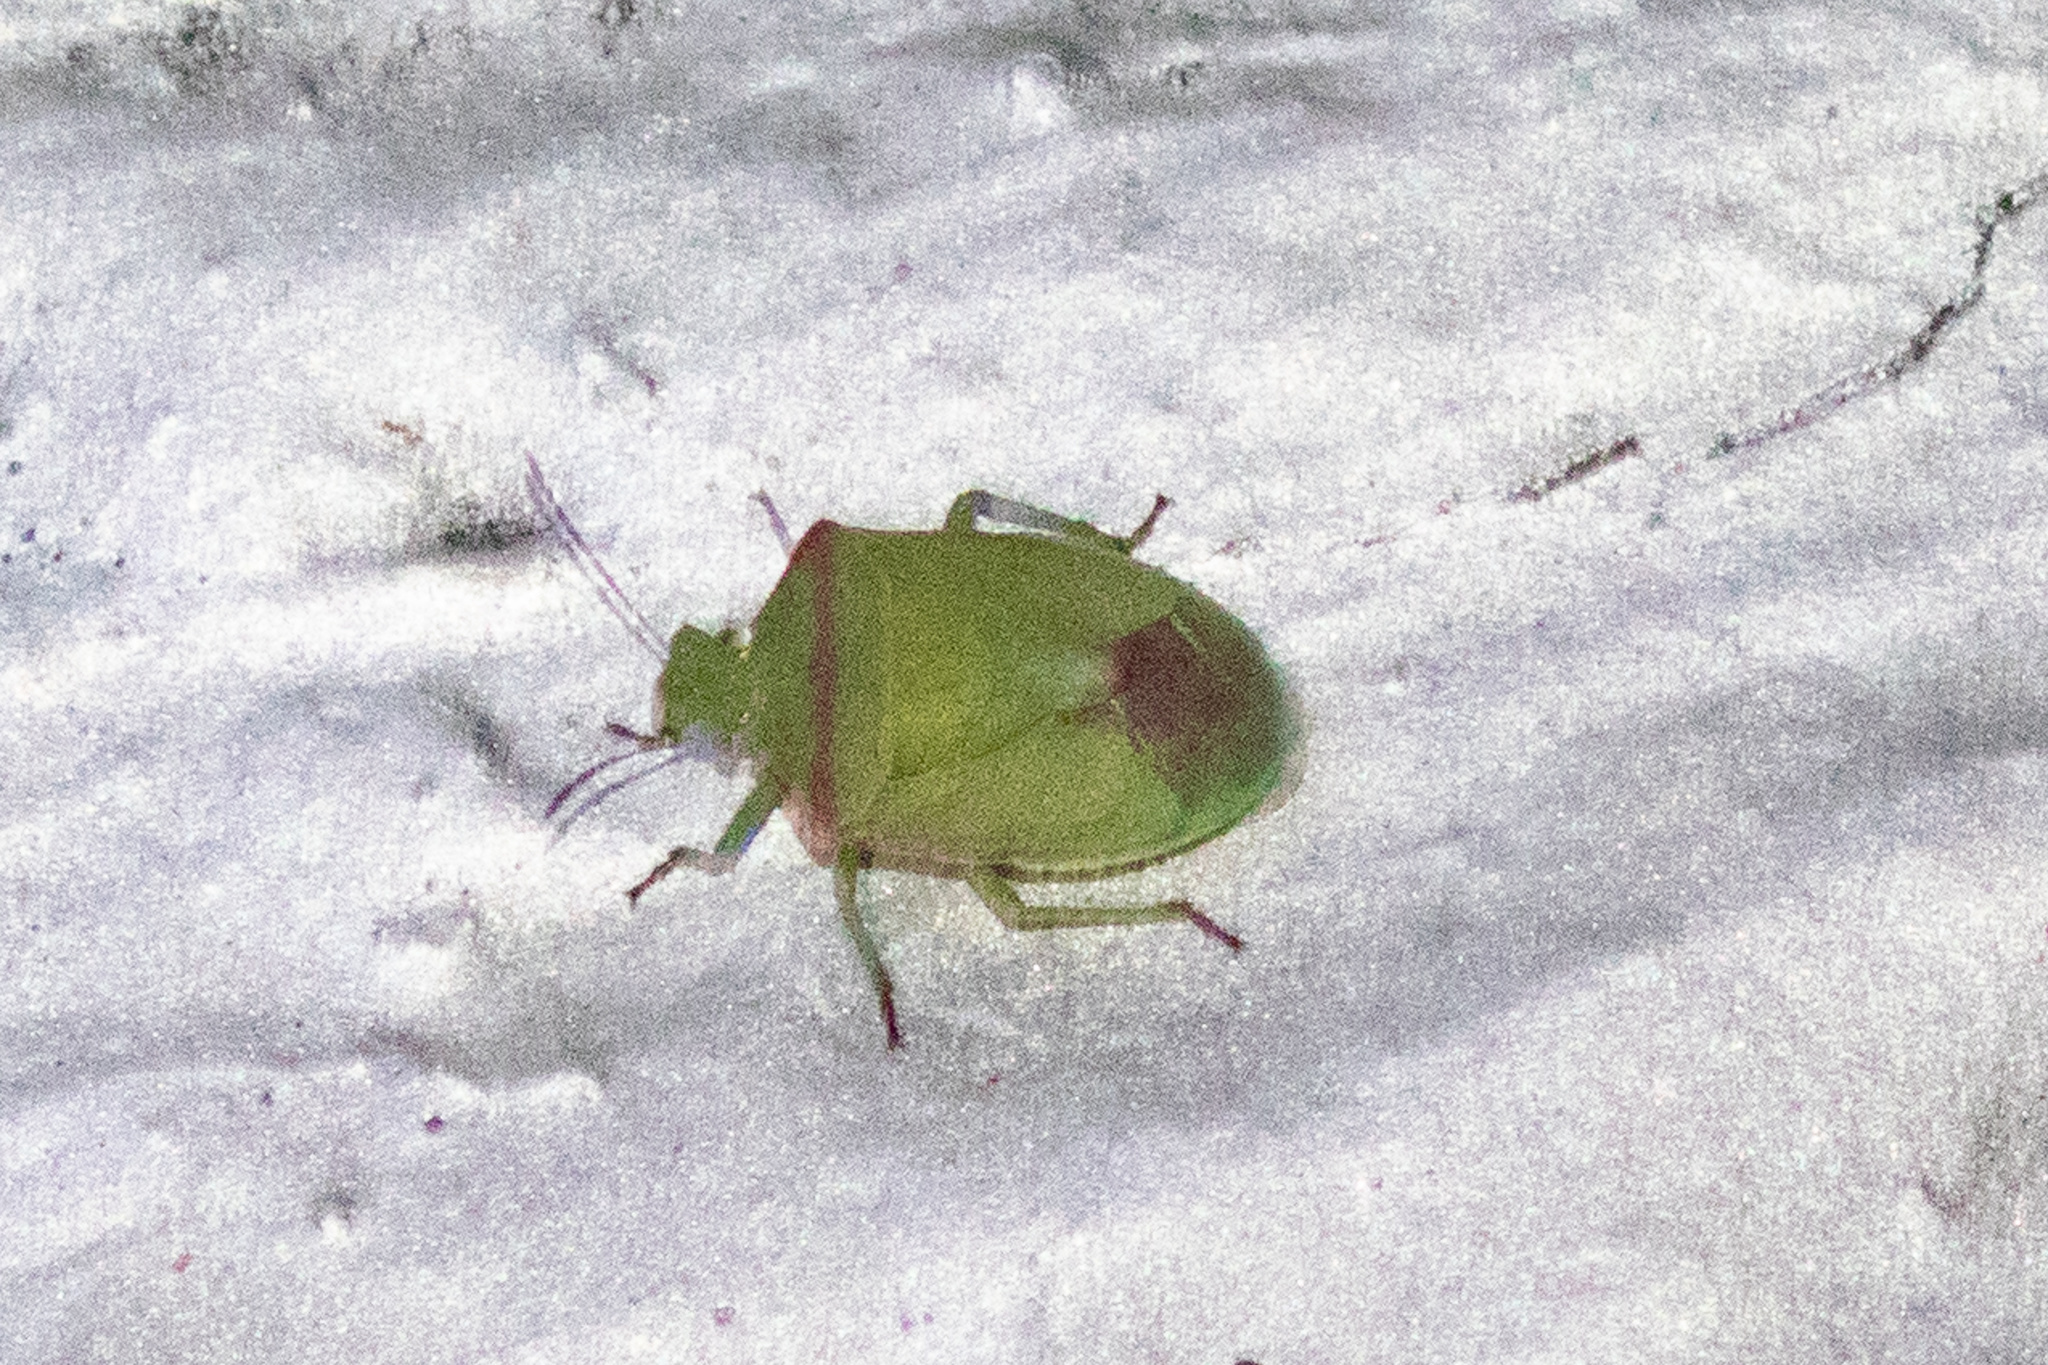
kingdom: Animalia
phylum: Arthropoda
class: Insecta
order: Hemiptera
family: Pentatomidae
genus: Thyanta
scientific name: Thyanta custator
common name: Stink bug
